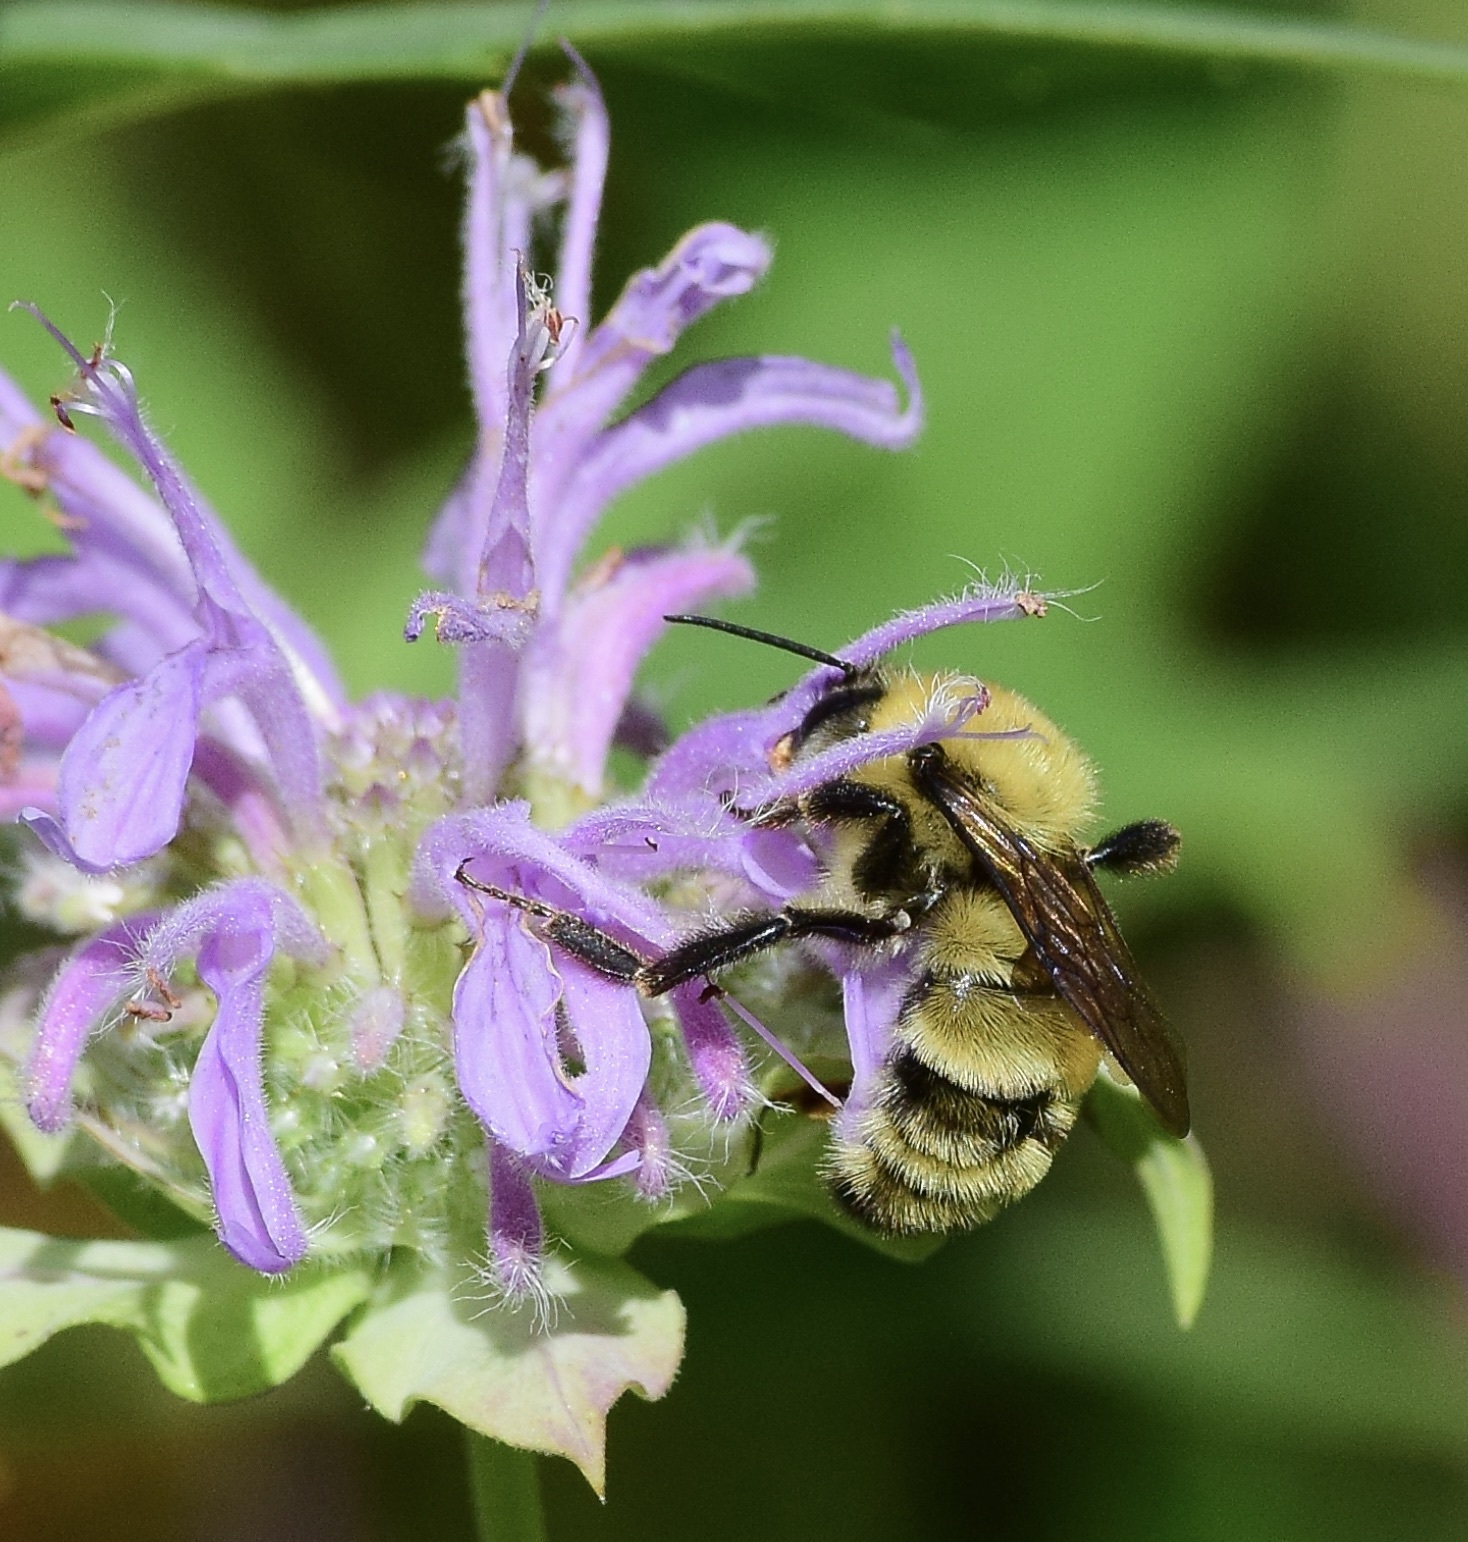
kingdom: Animalia
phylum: Arthropoda
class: Insecta
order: Hymenoptera
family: Apidae
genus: Bombus
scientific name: Bombus bimaculatus
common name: Two-spotted bumble bee
